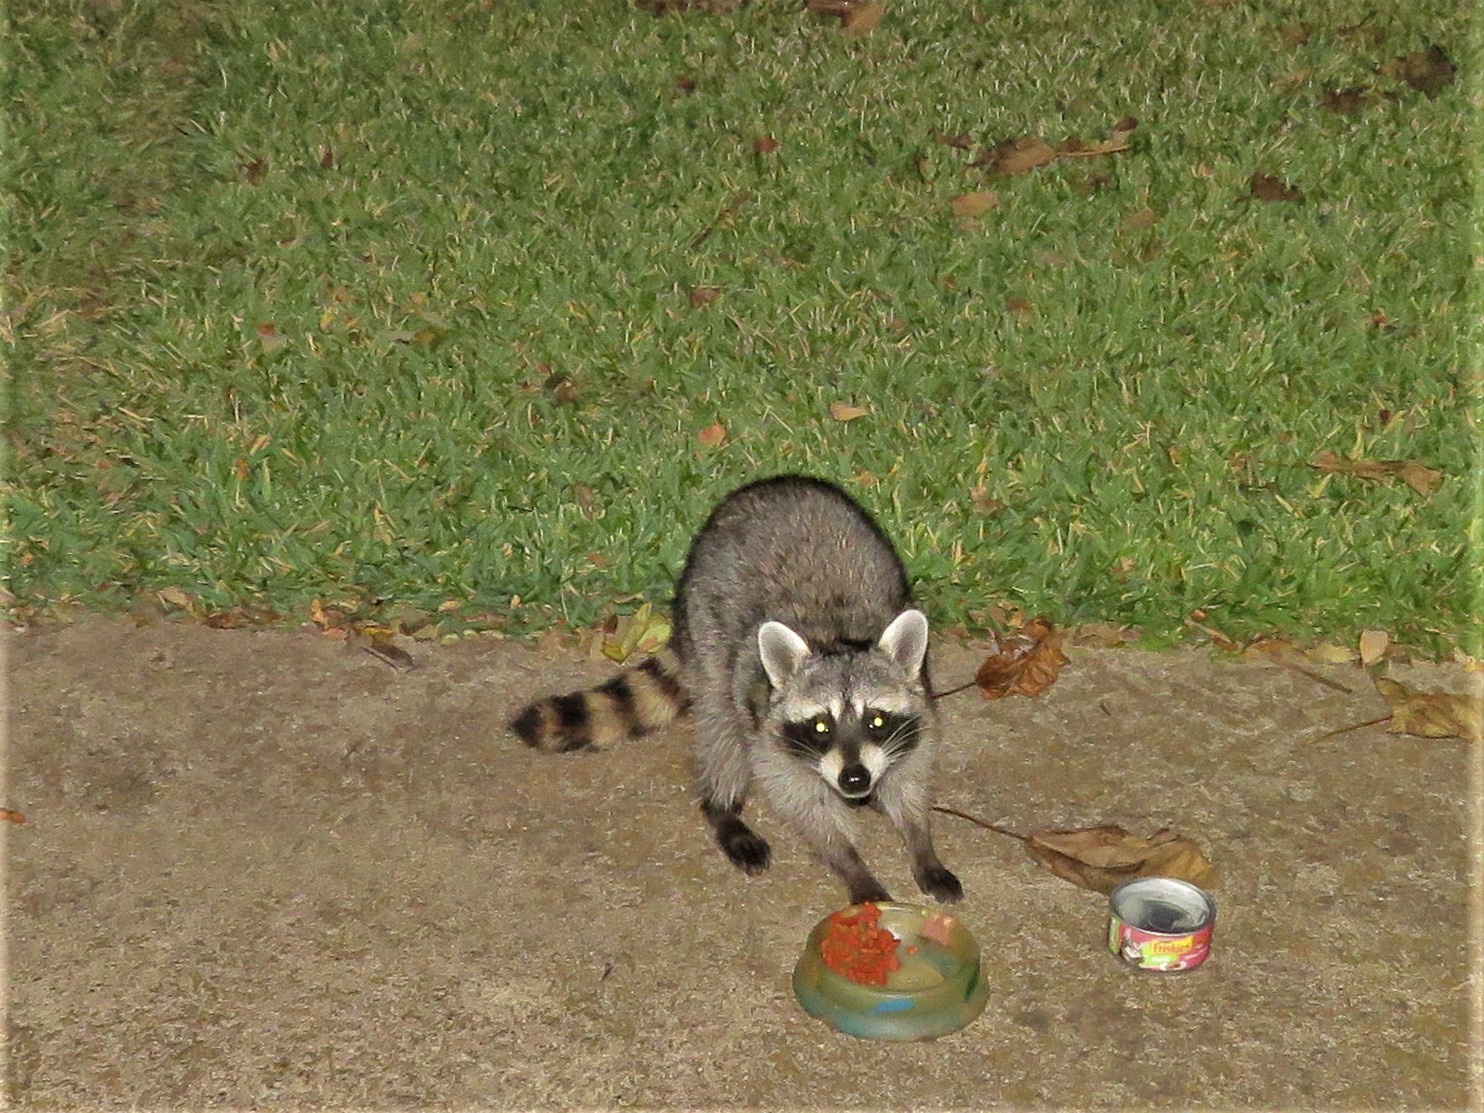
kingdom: Animalia
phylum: Chordata
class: Mammalia
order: Carnivora
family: Procyonidae
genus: Procyon
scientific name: Procyon lotor
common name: Raccoon
